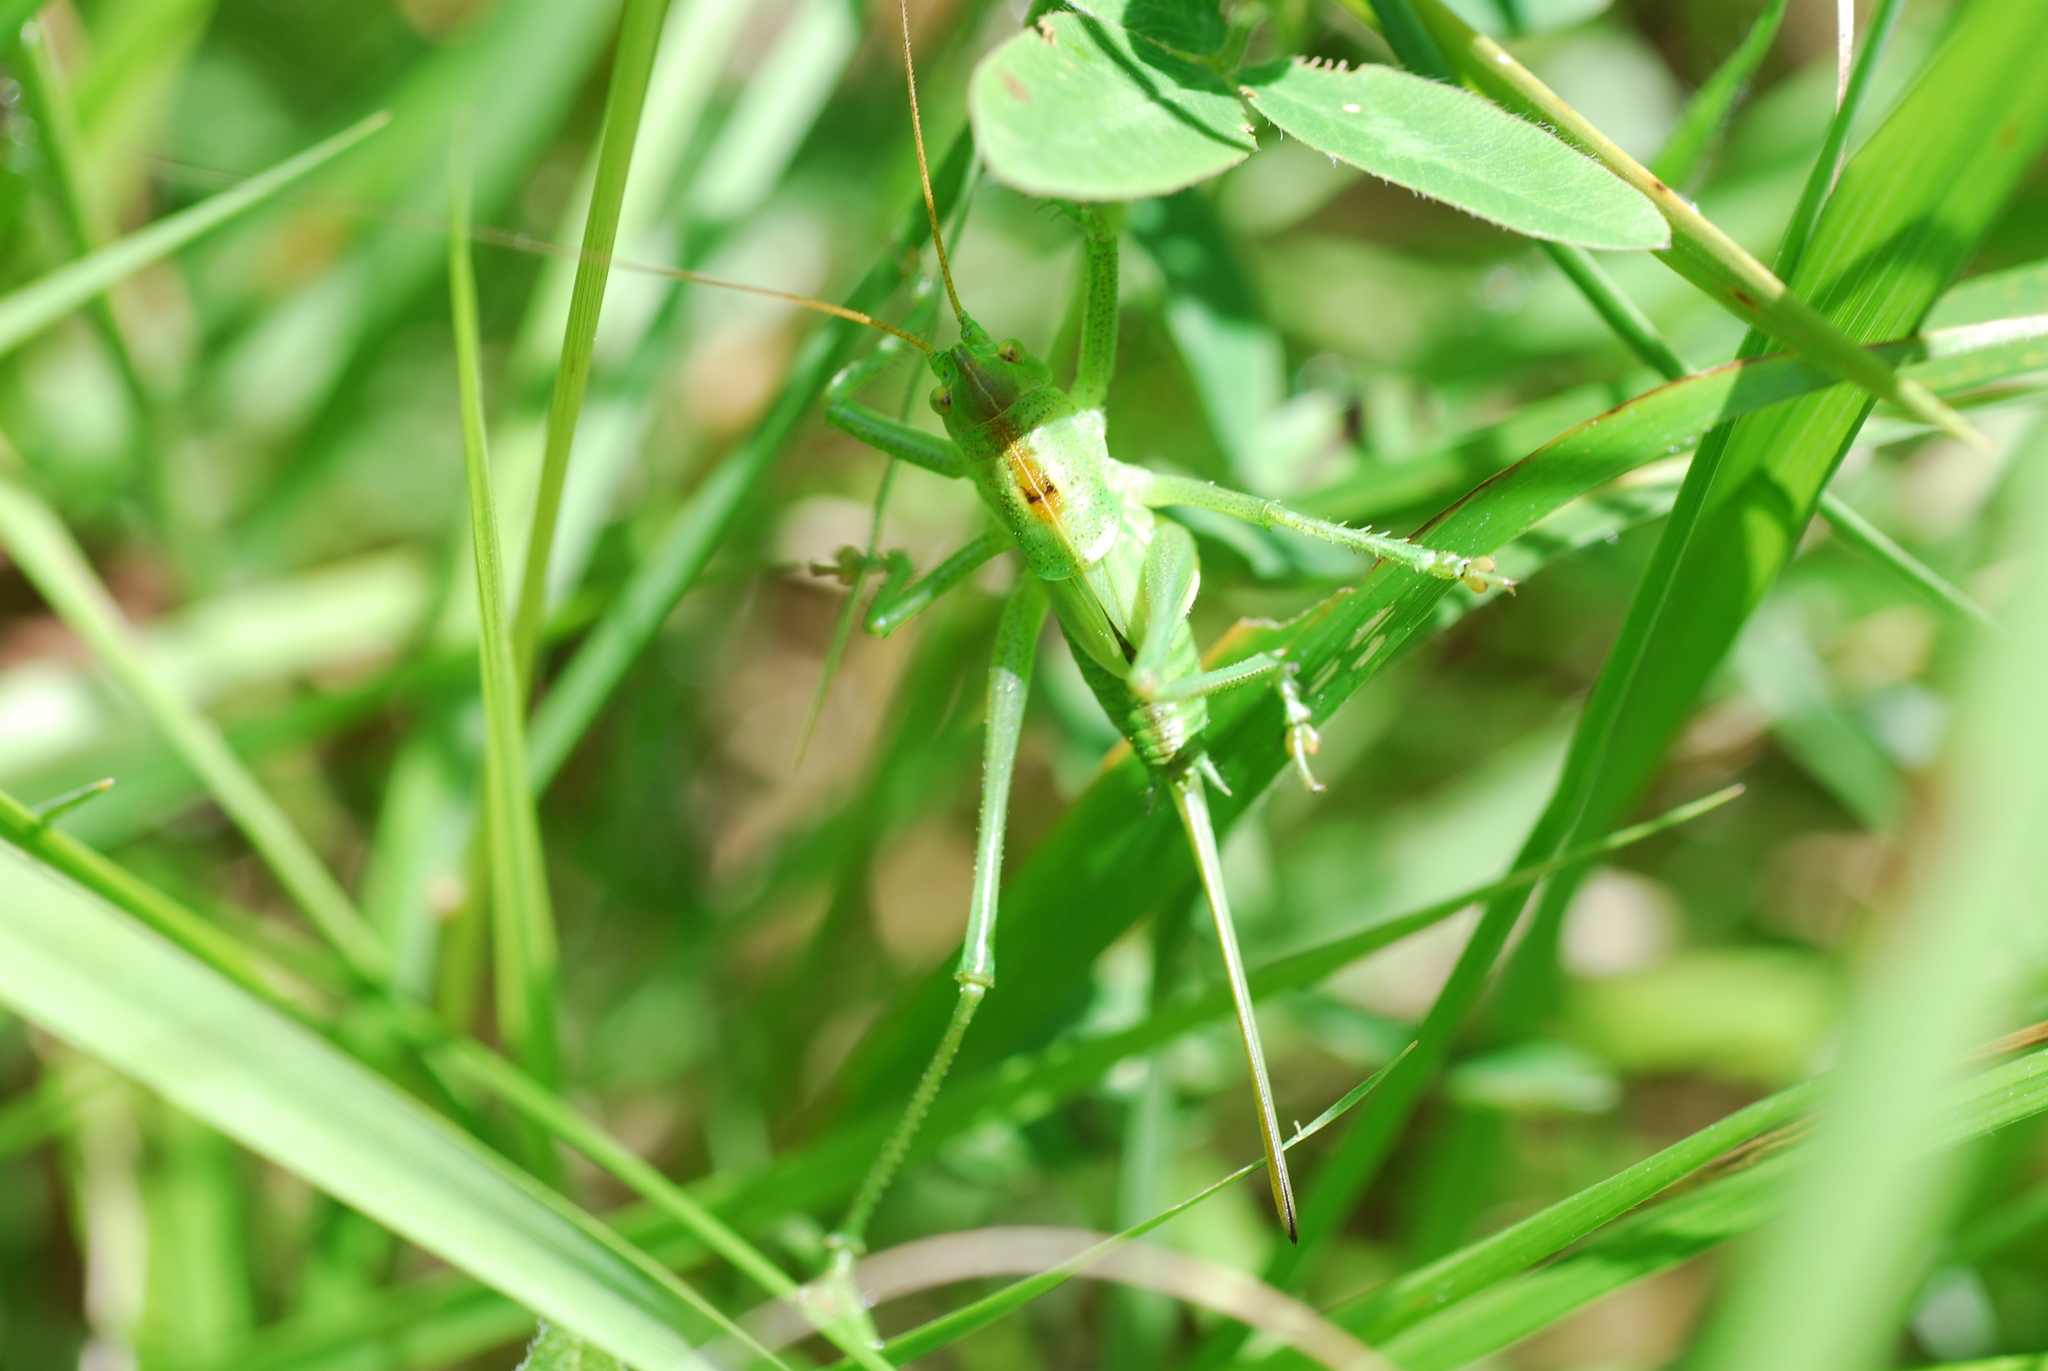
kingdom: Animalia
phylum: Arthropoda
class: Insecta
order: Orthoptera
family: Tettigoniidae
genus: Tettigonia
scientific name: Tettigonia cantans
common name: Upland green bush-cricket
